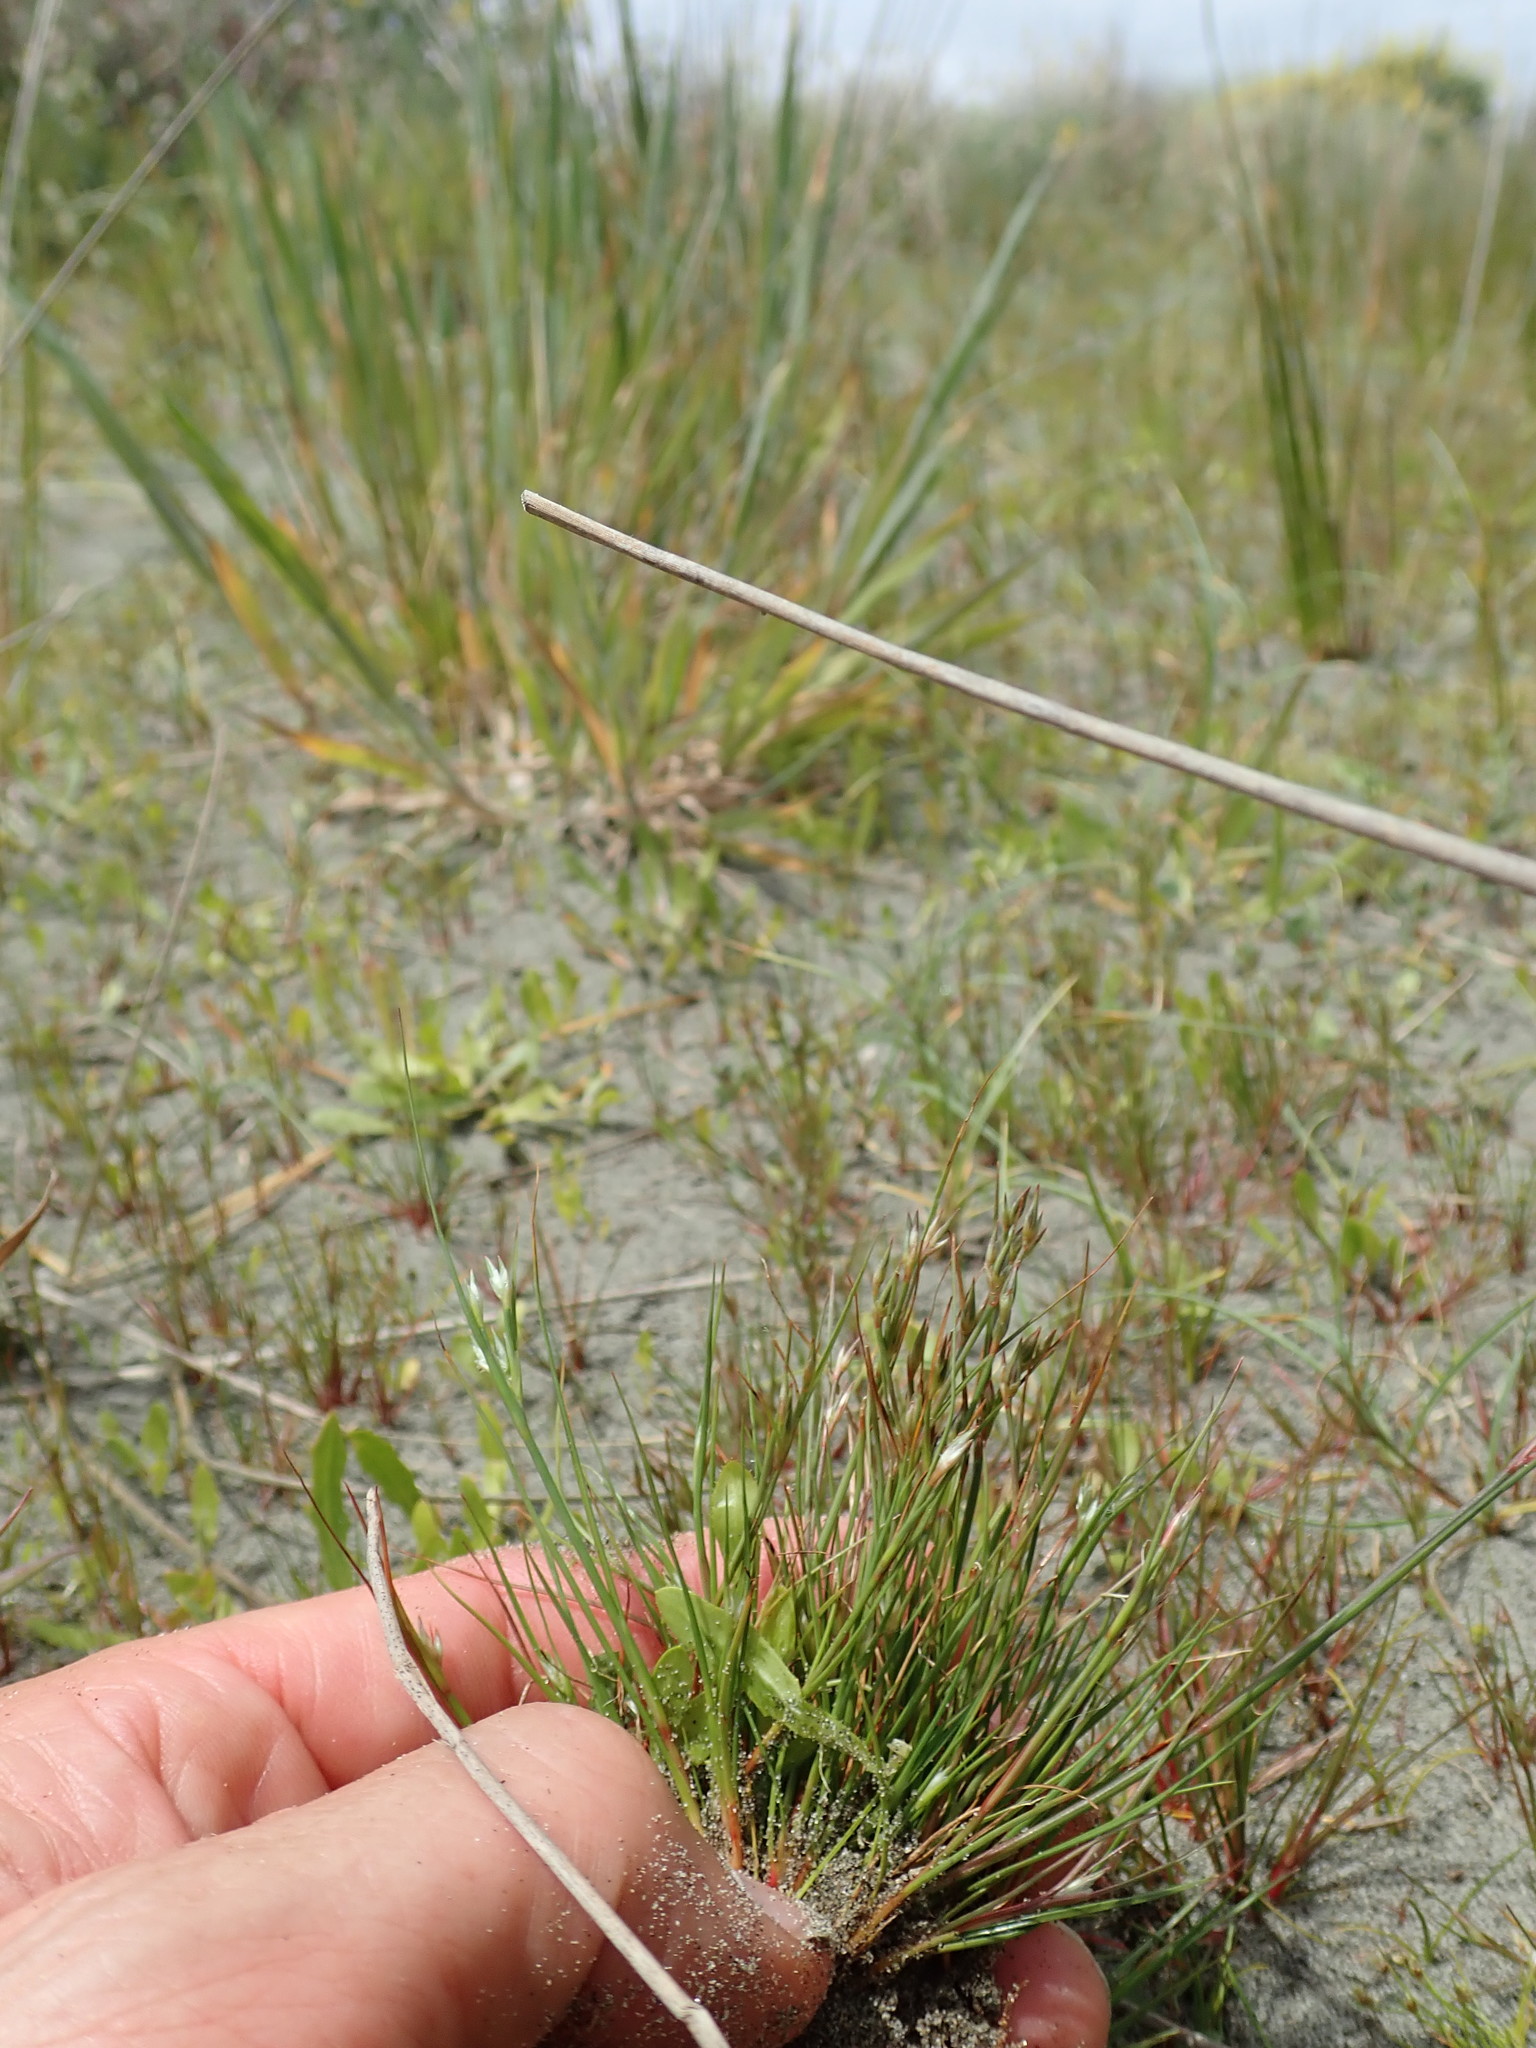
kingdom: Plantae
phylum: Tracheophyta
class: Liliopsida
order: Poales
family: Juncaceae
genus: Juncus
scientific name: Juncus bufonius
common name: Toad rush
